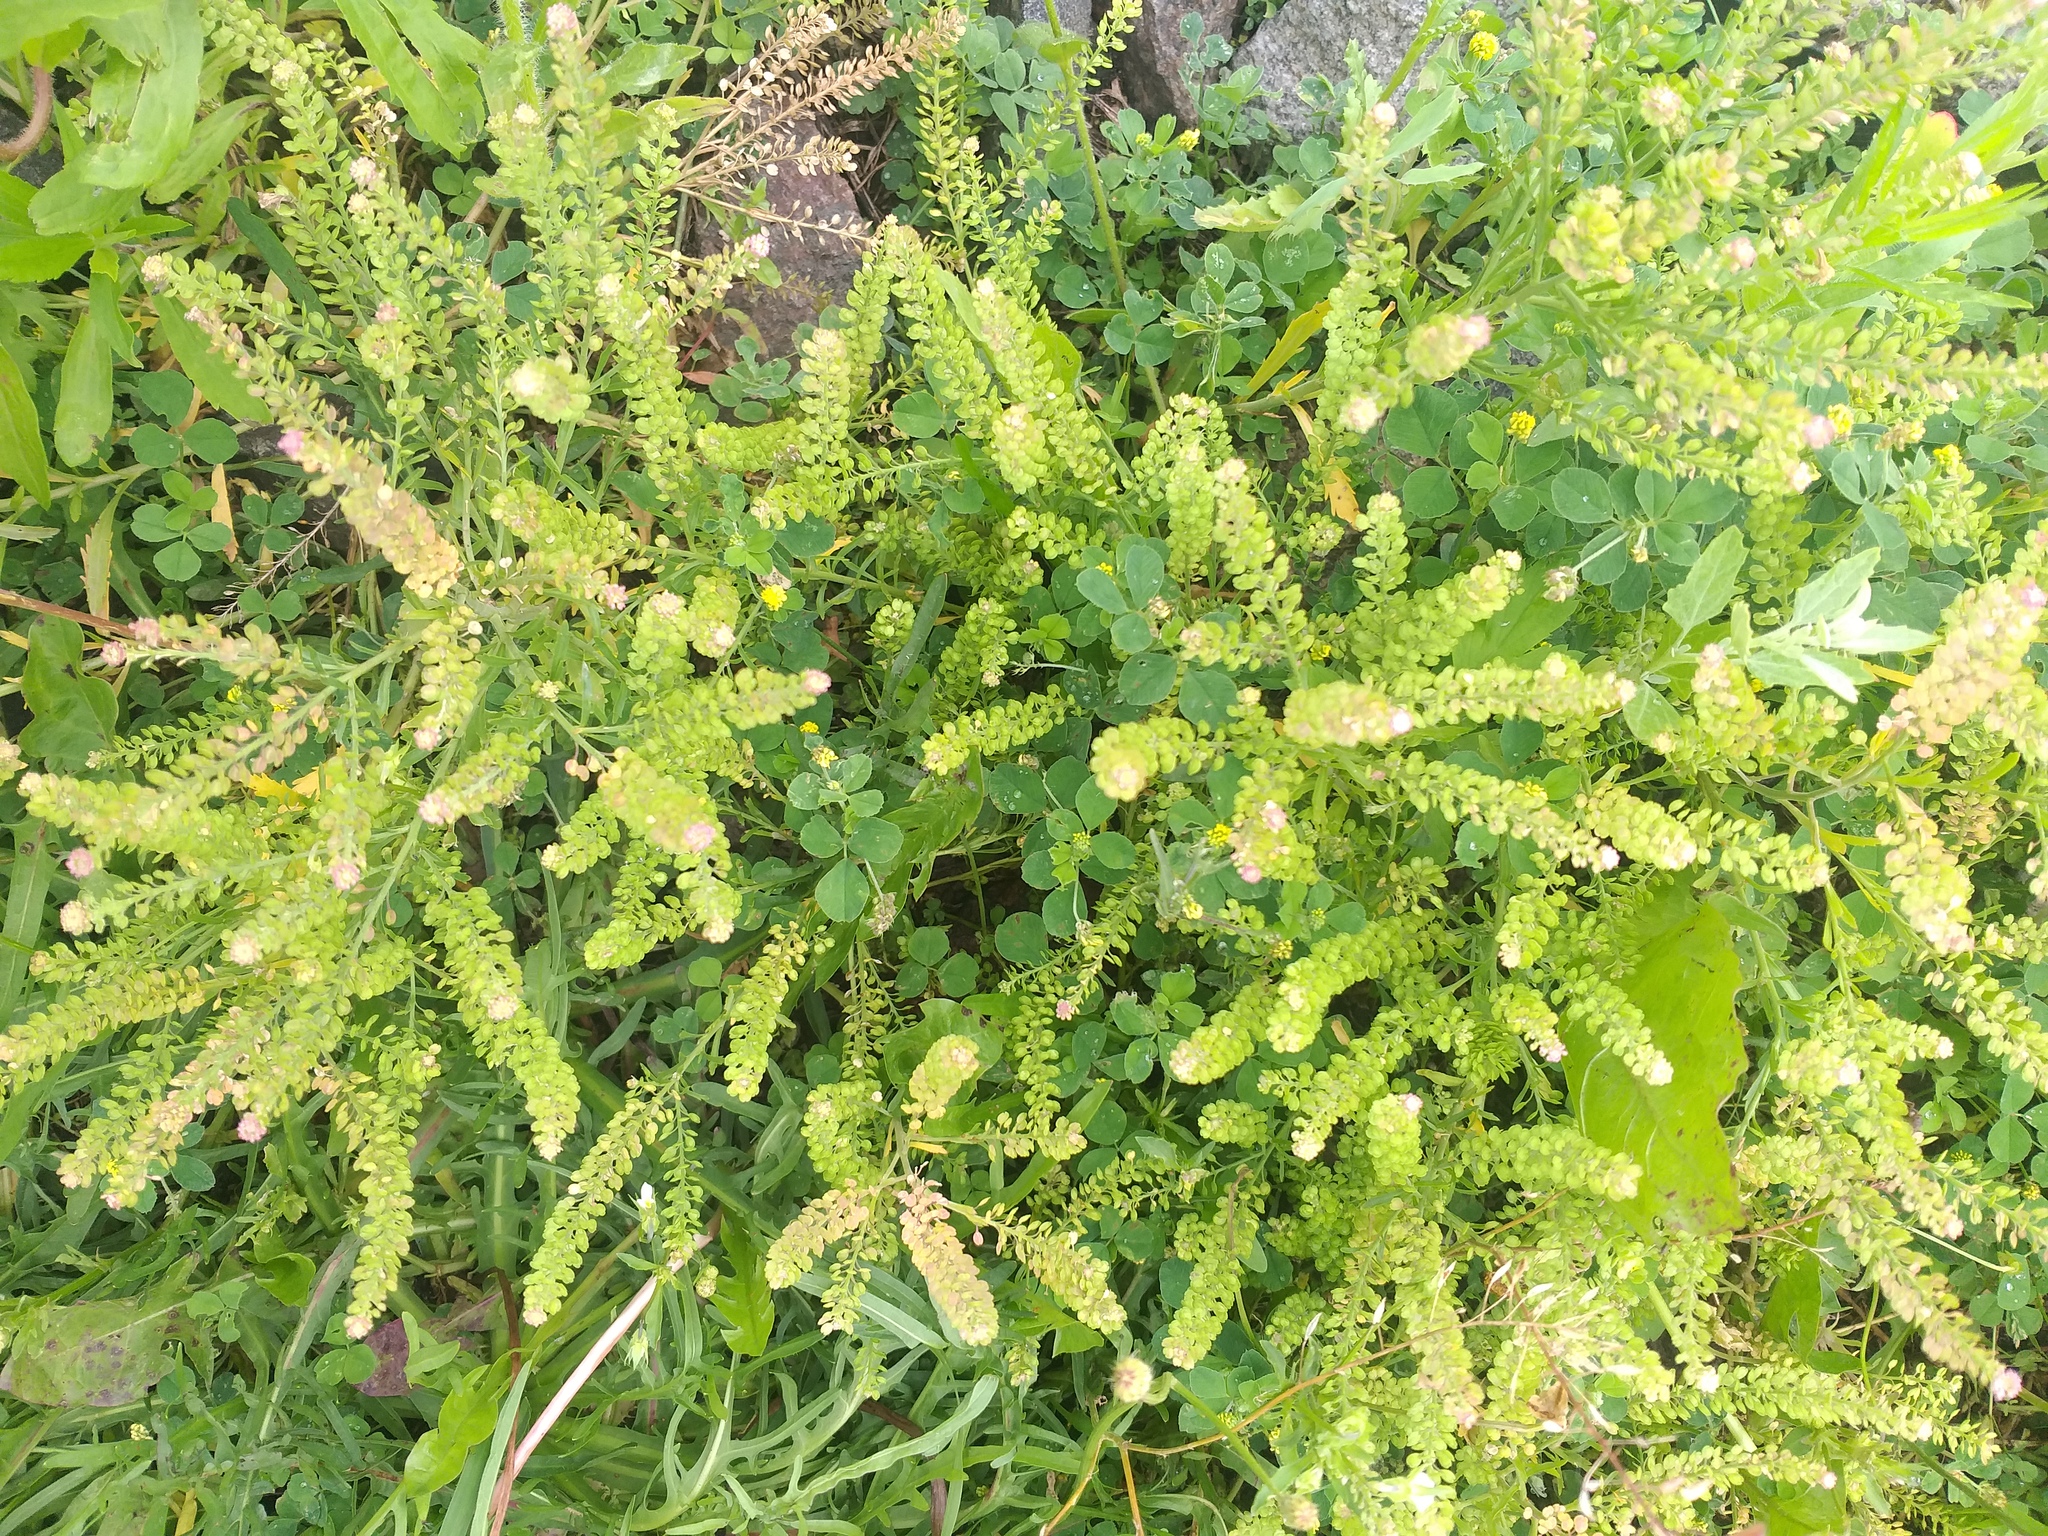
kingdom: Plantae
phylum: Tracheophyta
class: Magnoliopsida
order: Brassicales
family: Brassicaceae
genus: Lepidium
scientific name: Lepidium densiflorum
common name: Miner's pepperwort
